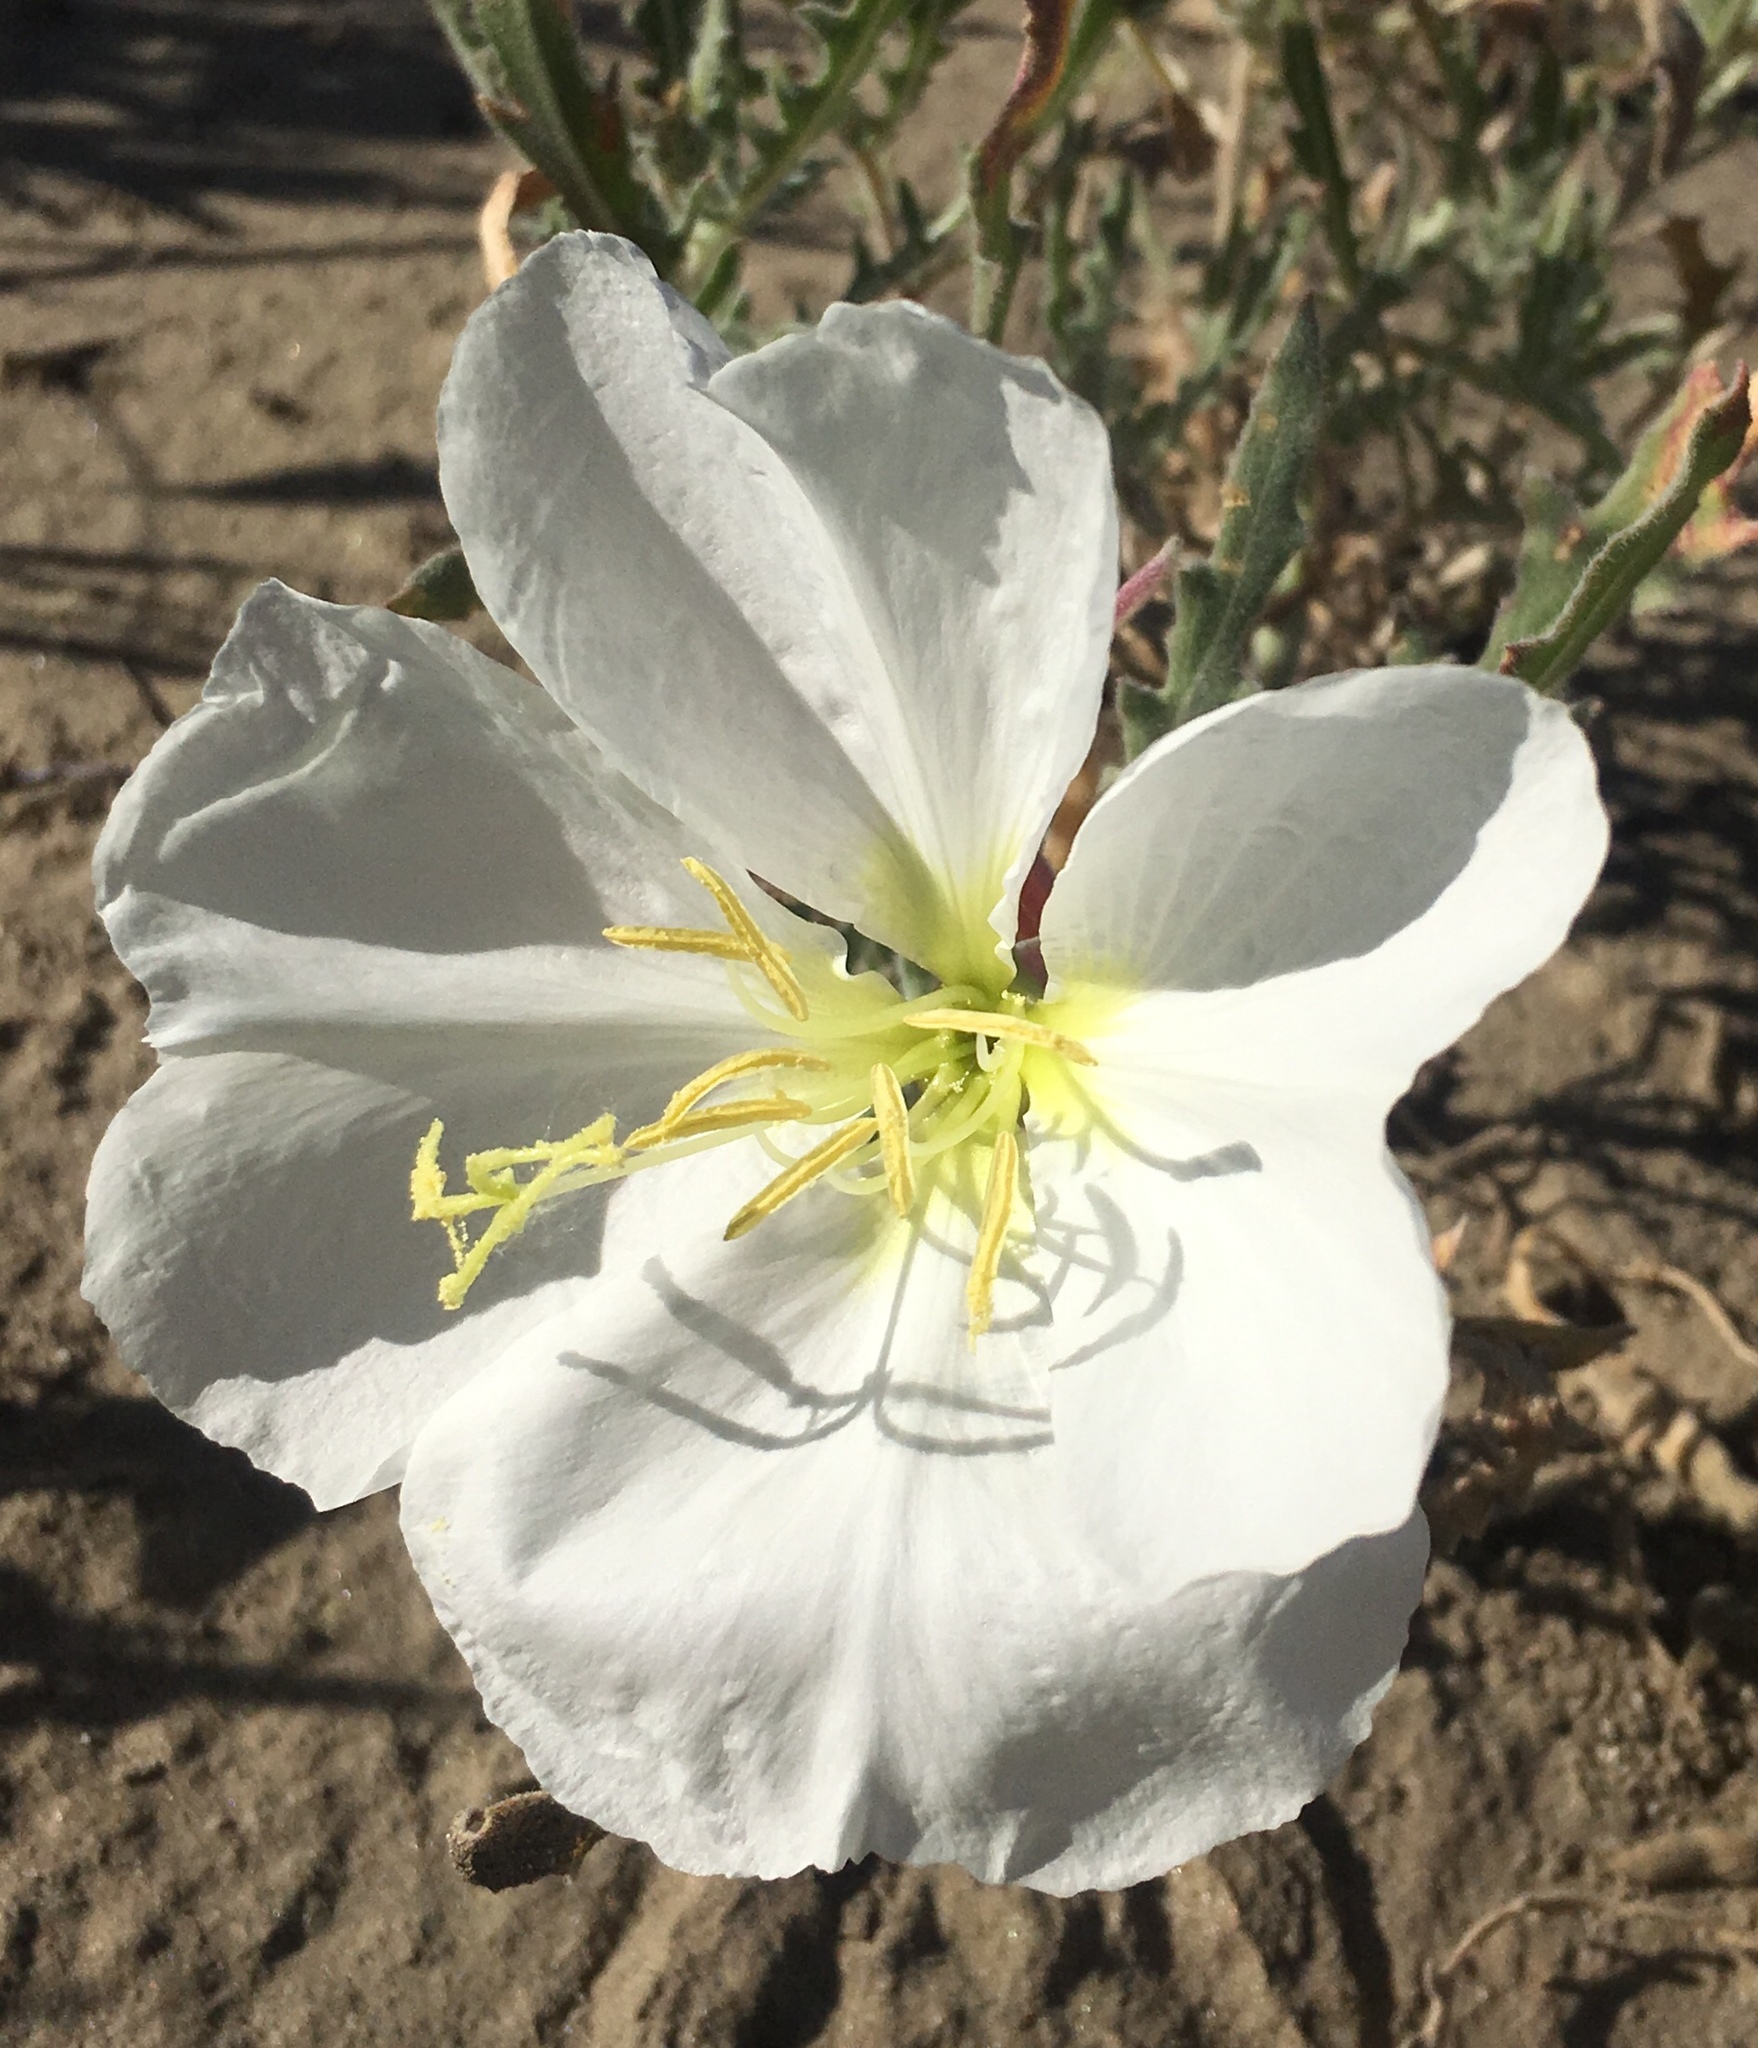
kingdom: Plantae
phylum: Tracheophyta
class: Magnoliopsida
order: Myrtales
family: Onagraceae
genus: Oenothera
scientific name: Oenothera californica
